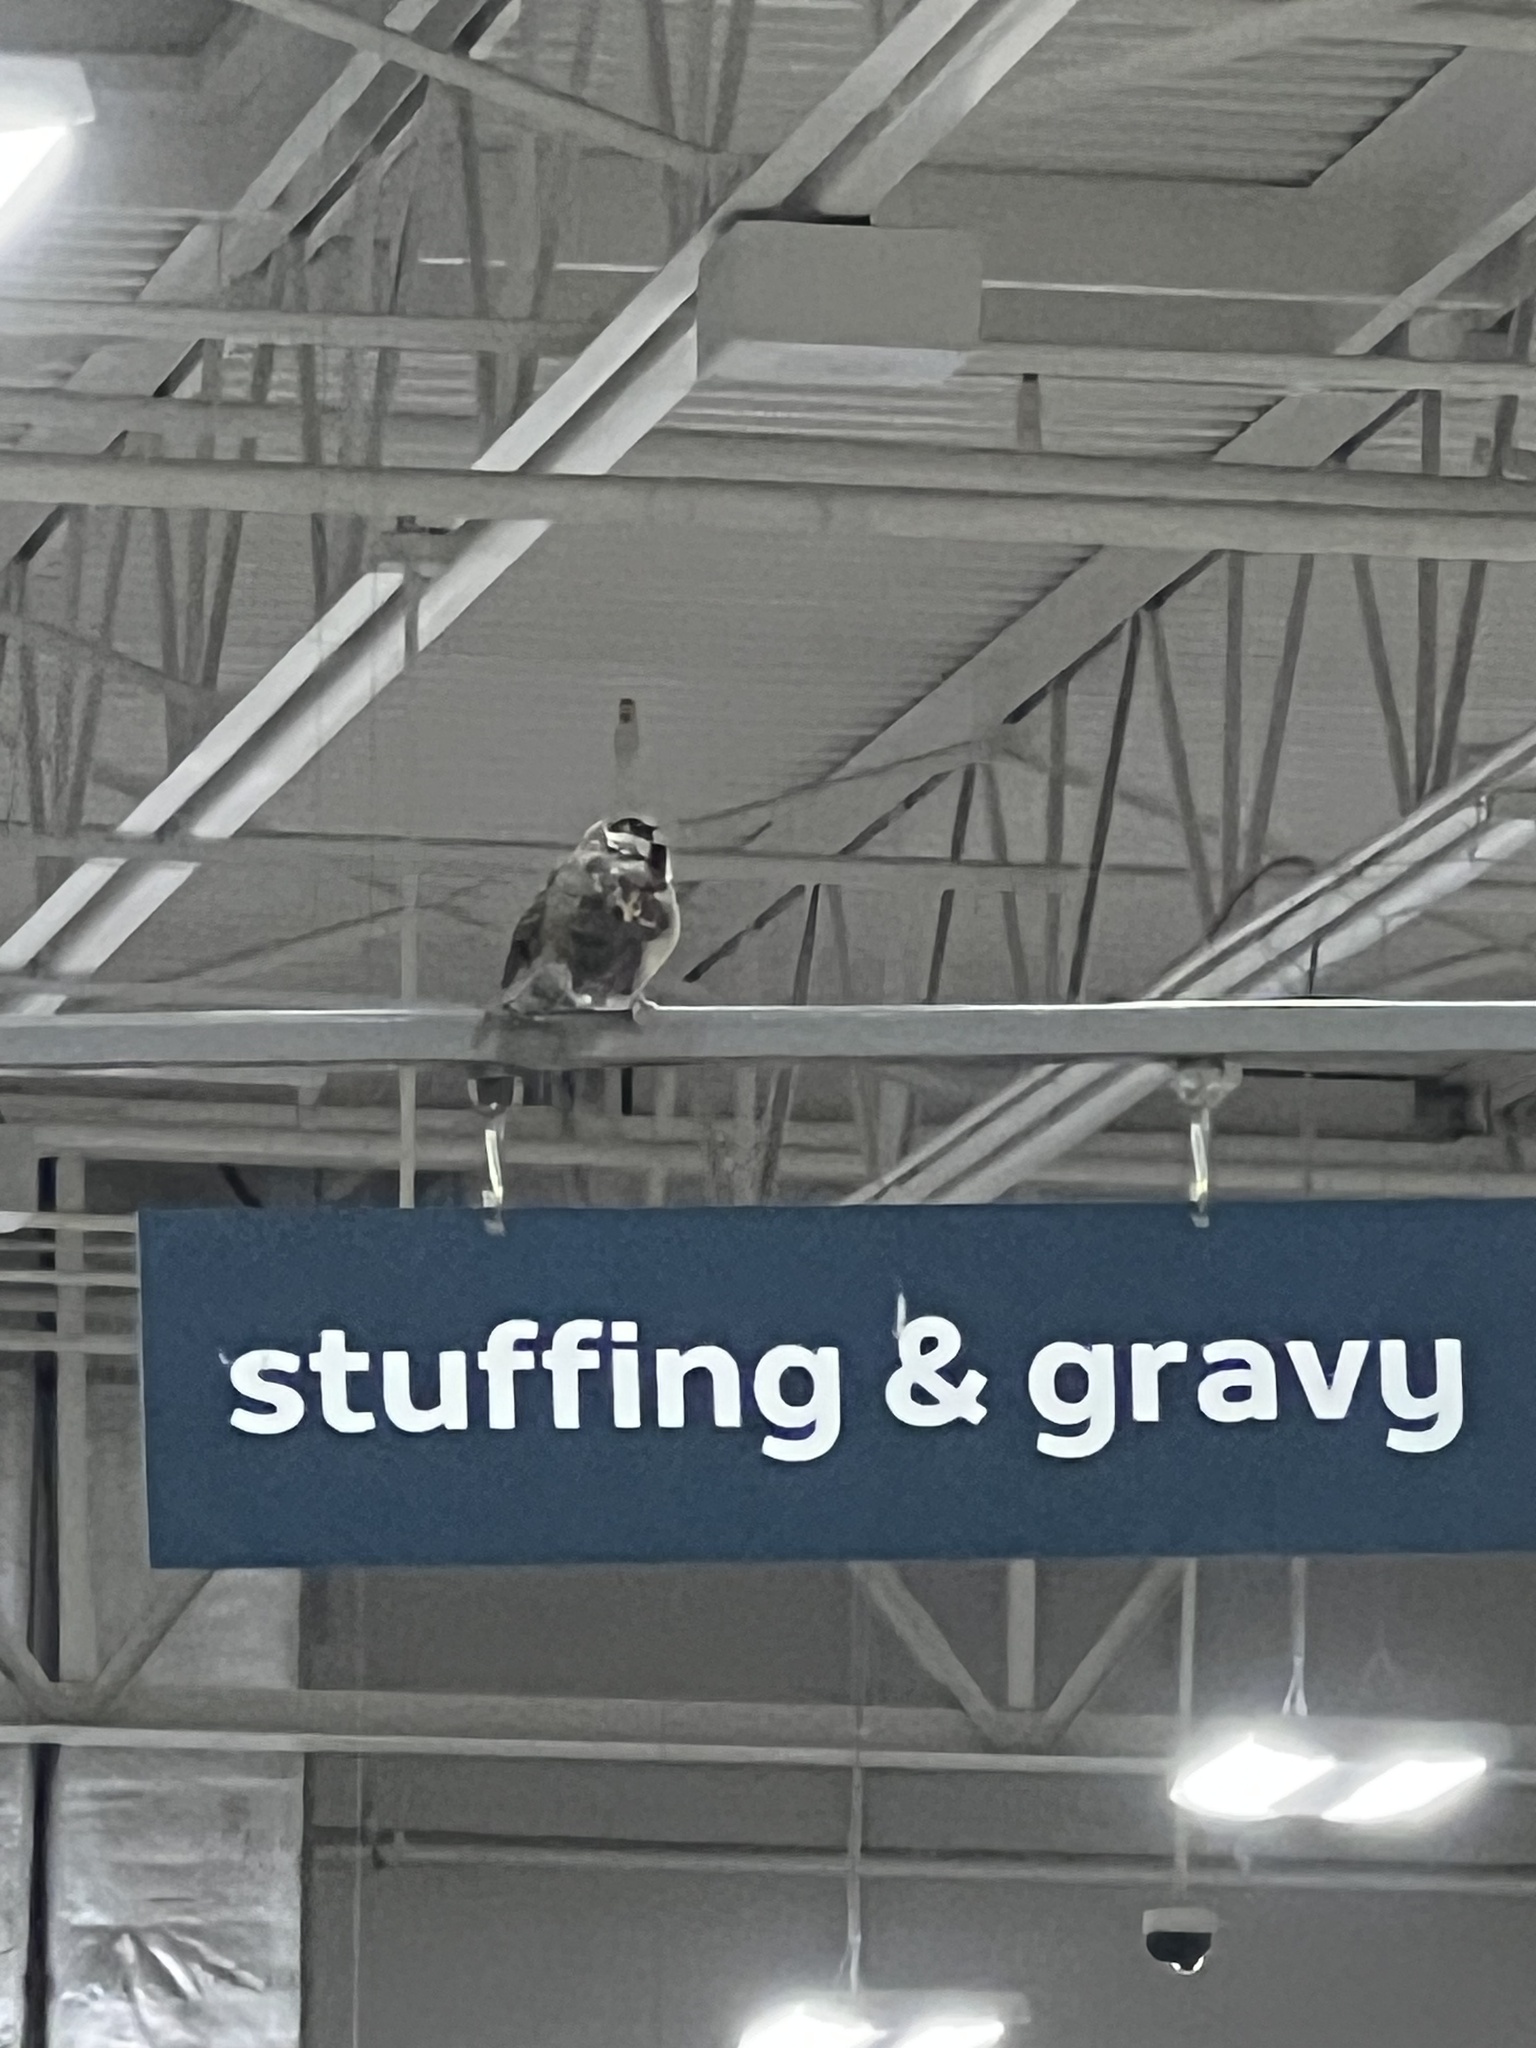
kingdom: Animalia
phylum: Chordata
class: Aves
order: Passeriformes
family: Passeridae
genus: Passer
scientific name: Passer domesticus
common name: House sparrow
